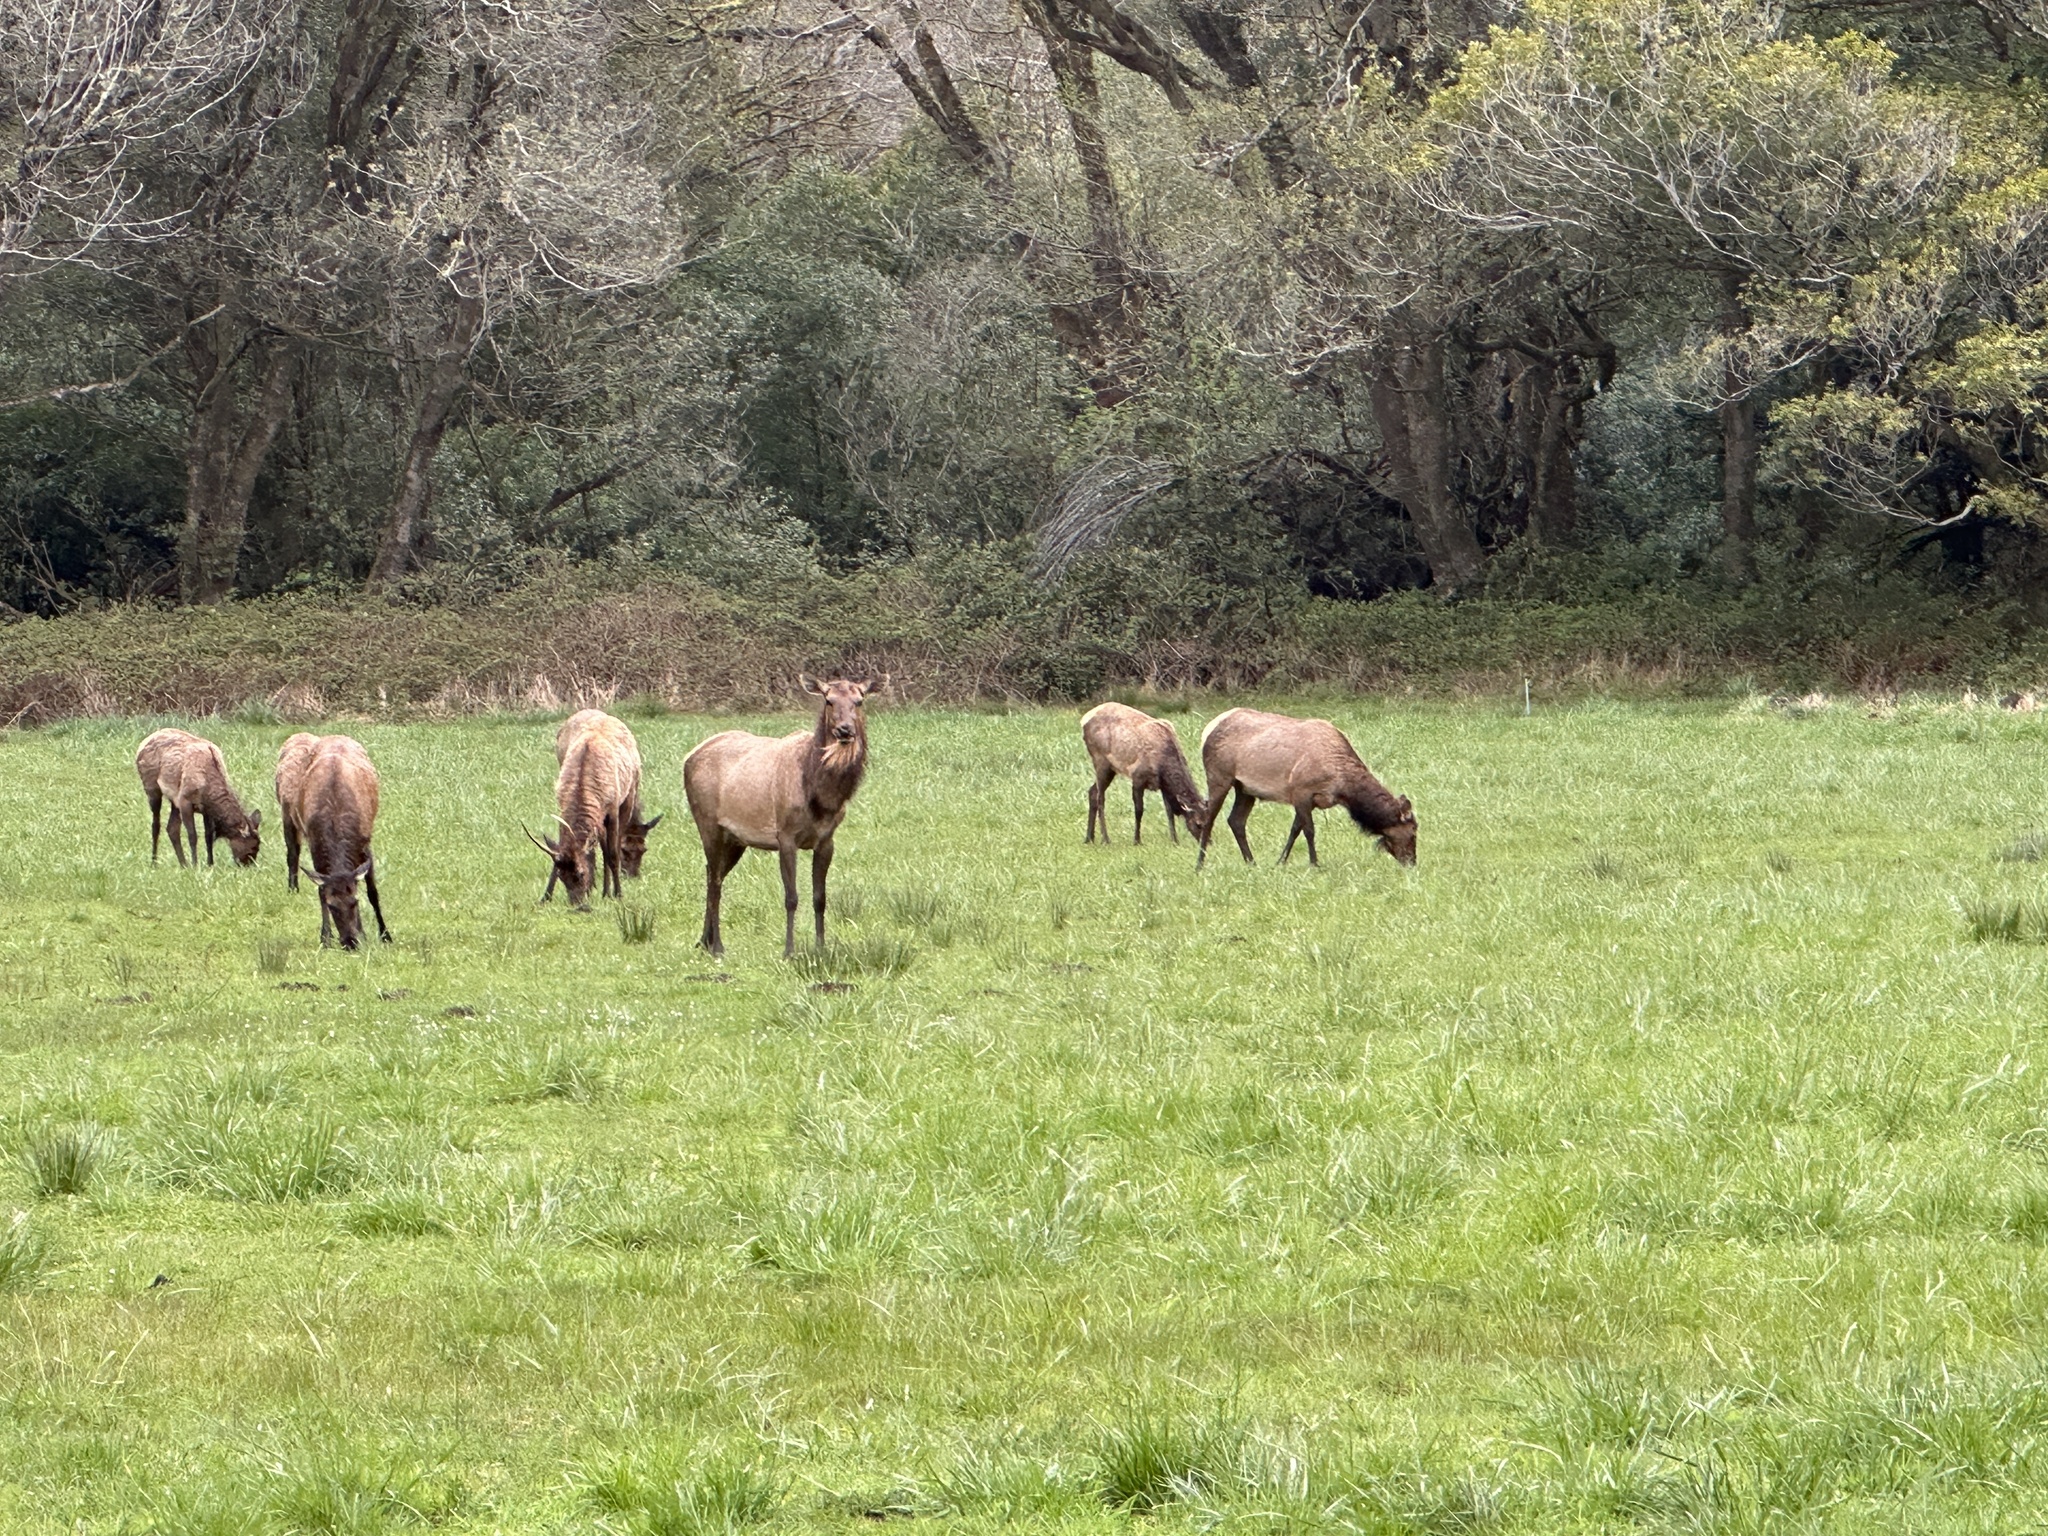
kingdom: Animalia
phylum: Chordata
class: Mammalia
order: Artiodactyla
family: Cervidae
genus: Cervus
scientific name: Cervus elaphus
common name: Red deer
